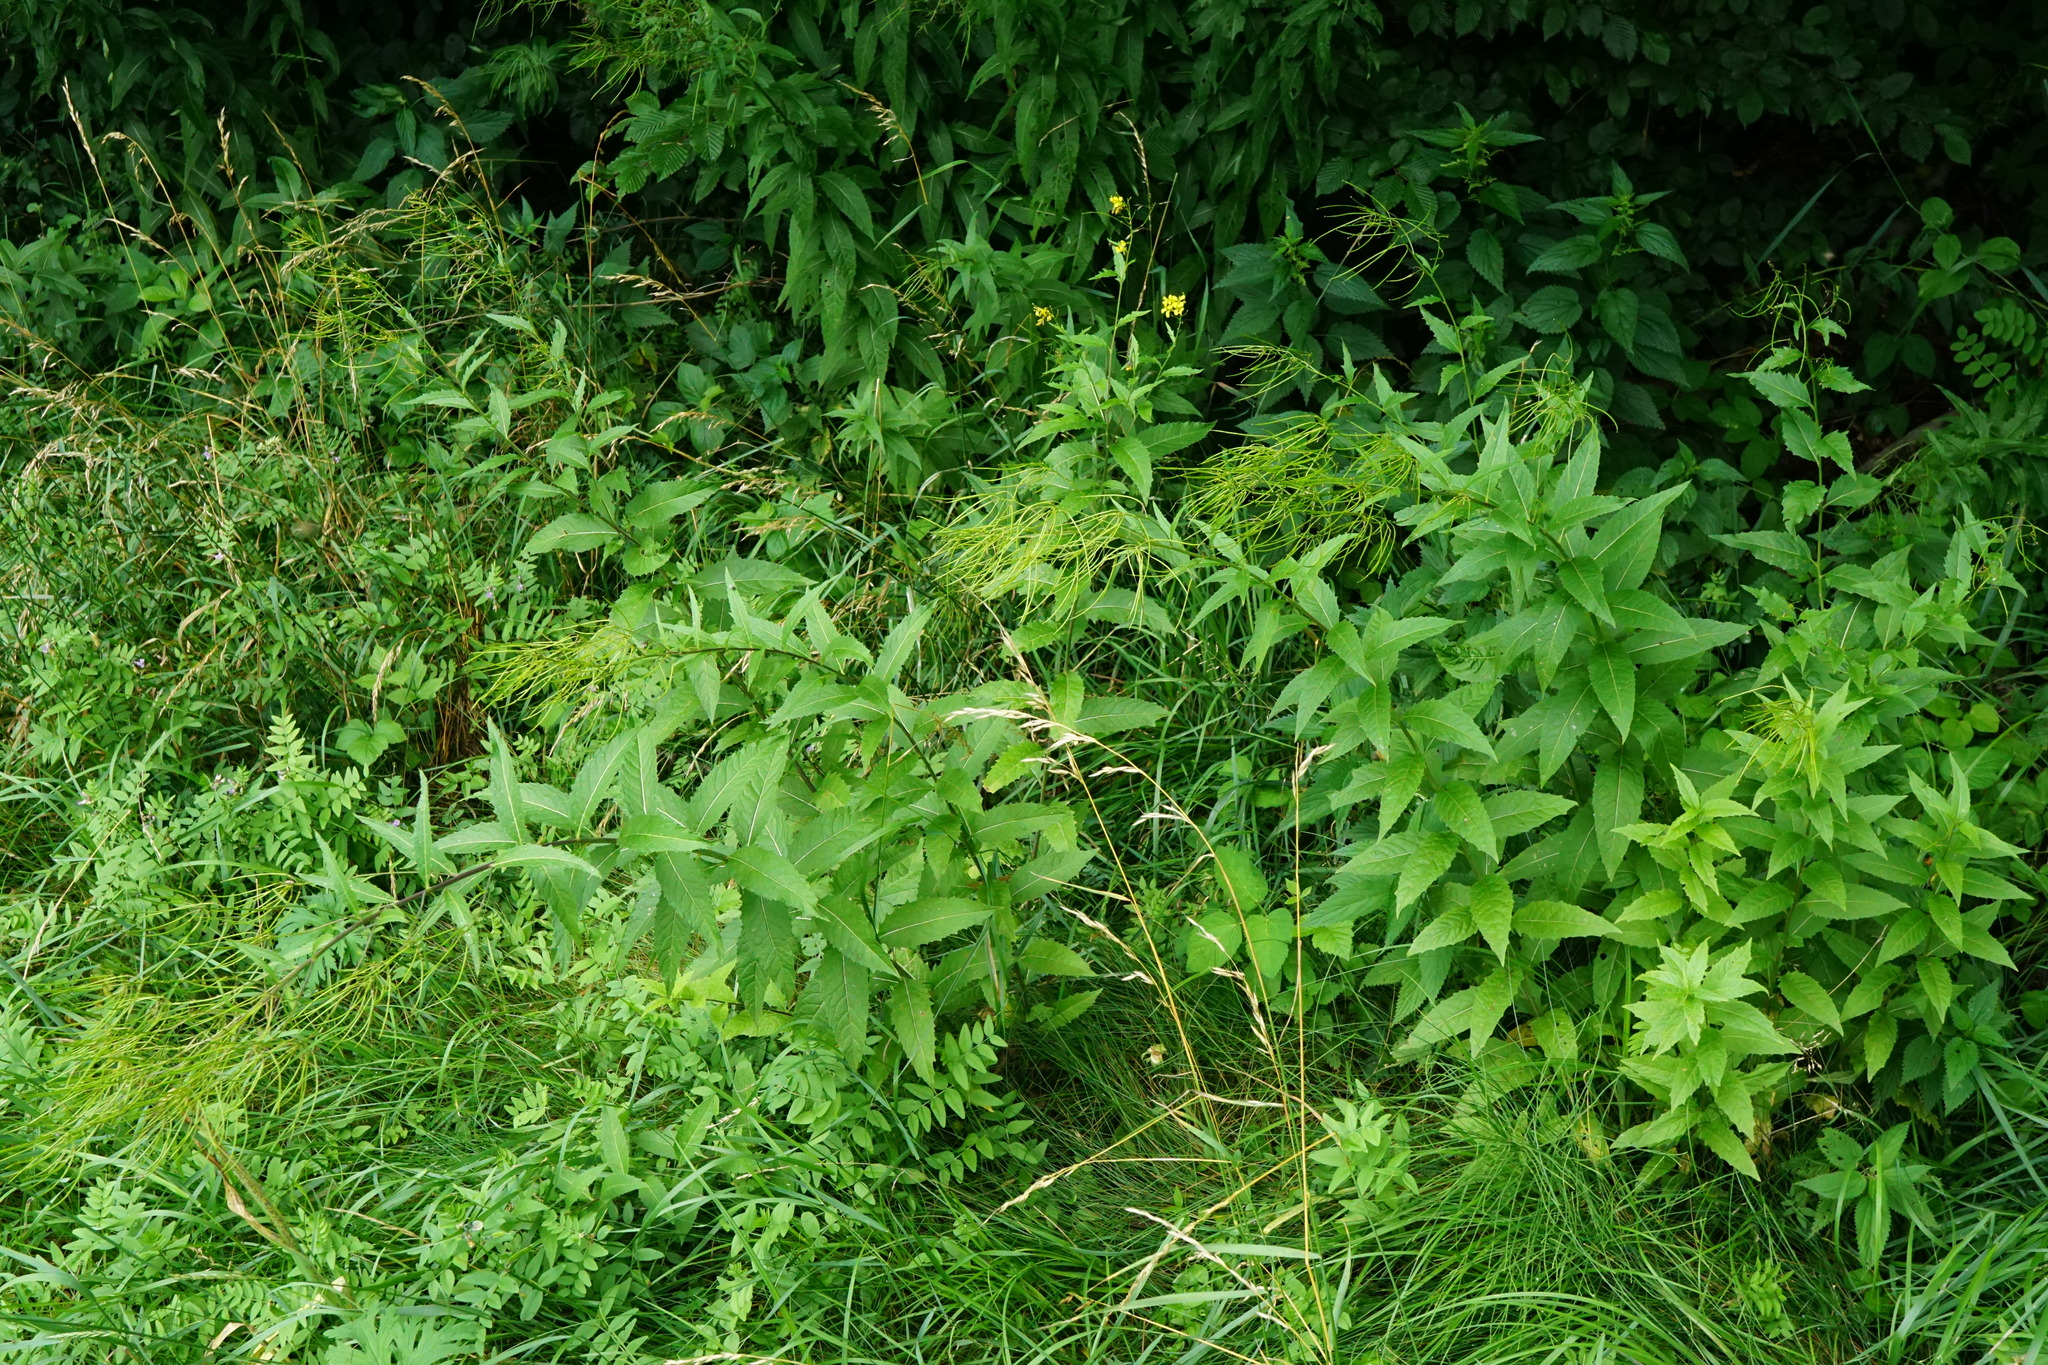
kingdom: Plantae
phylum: Tracheophyta
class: Magnoliopsida
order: Brassicales
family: Brassicaceae
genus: Sisymbrium
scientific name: Sisymbrium strictissimum
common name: Perennial rocket
